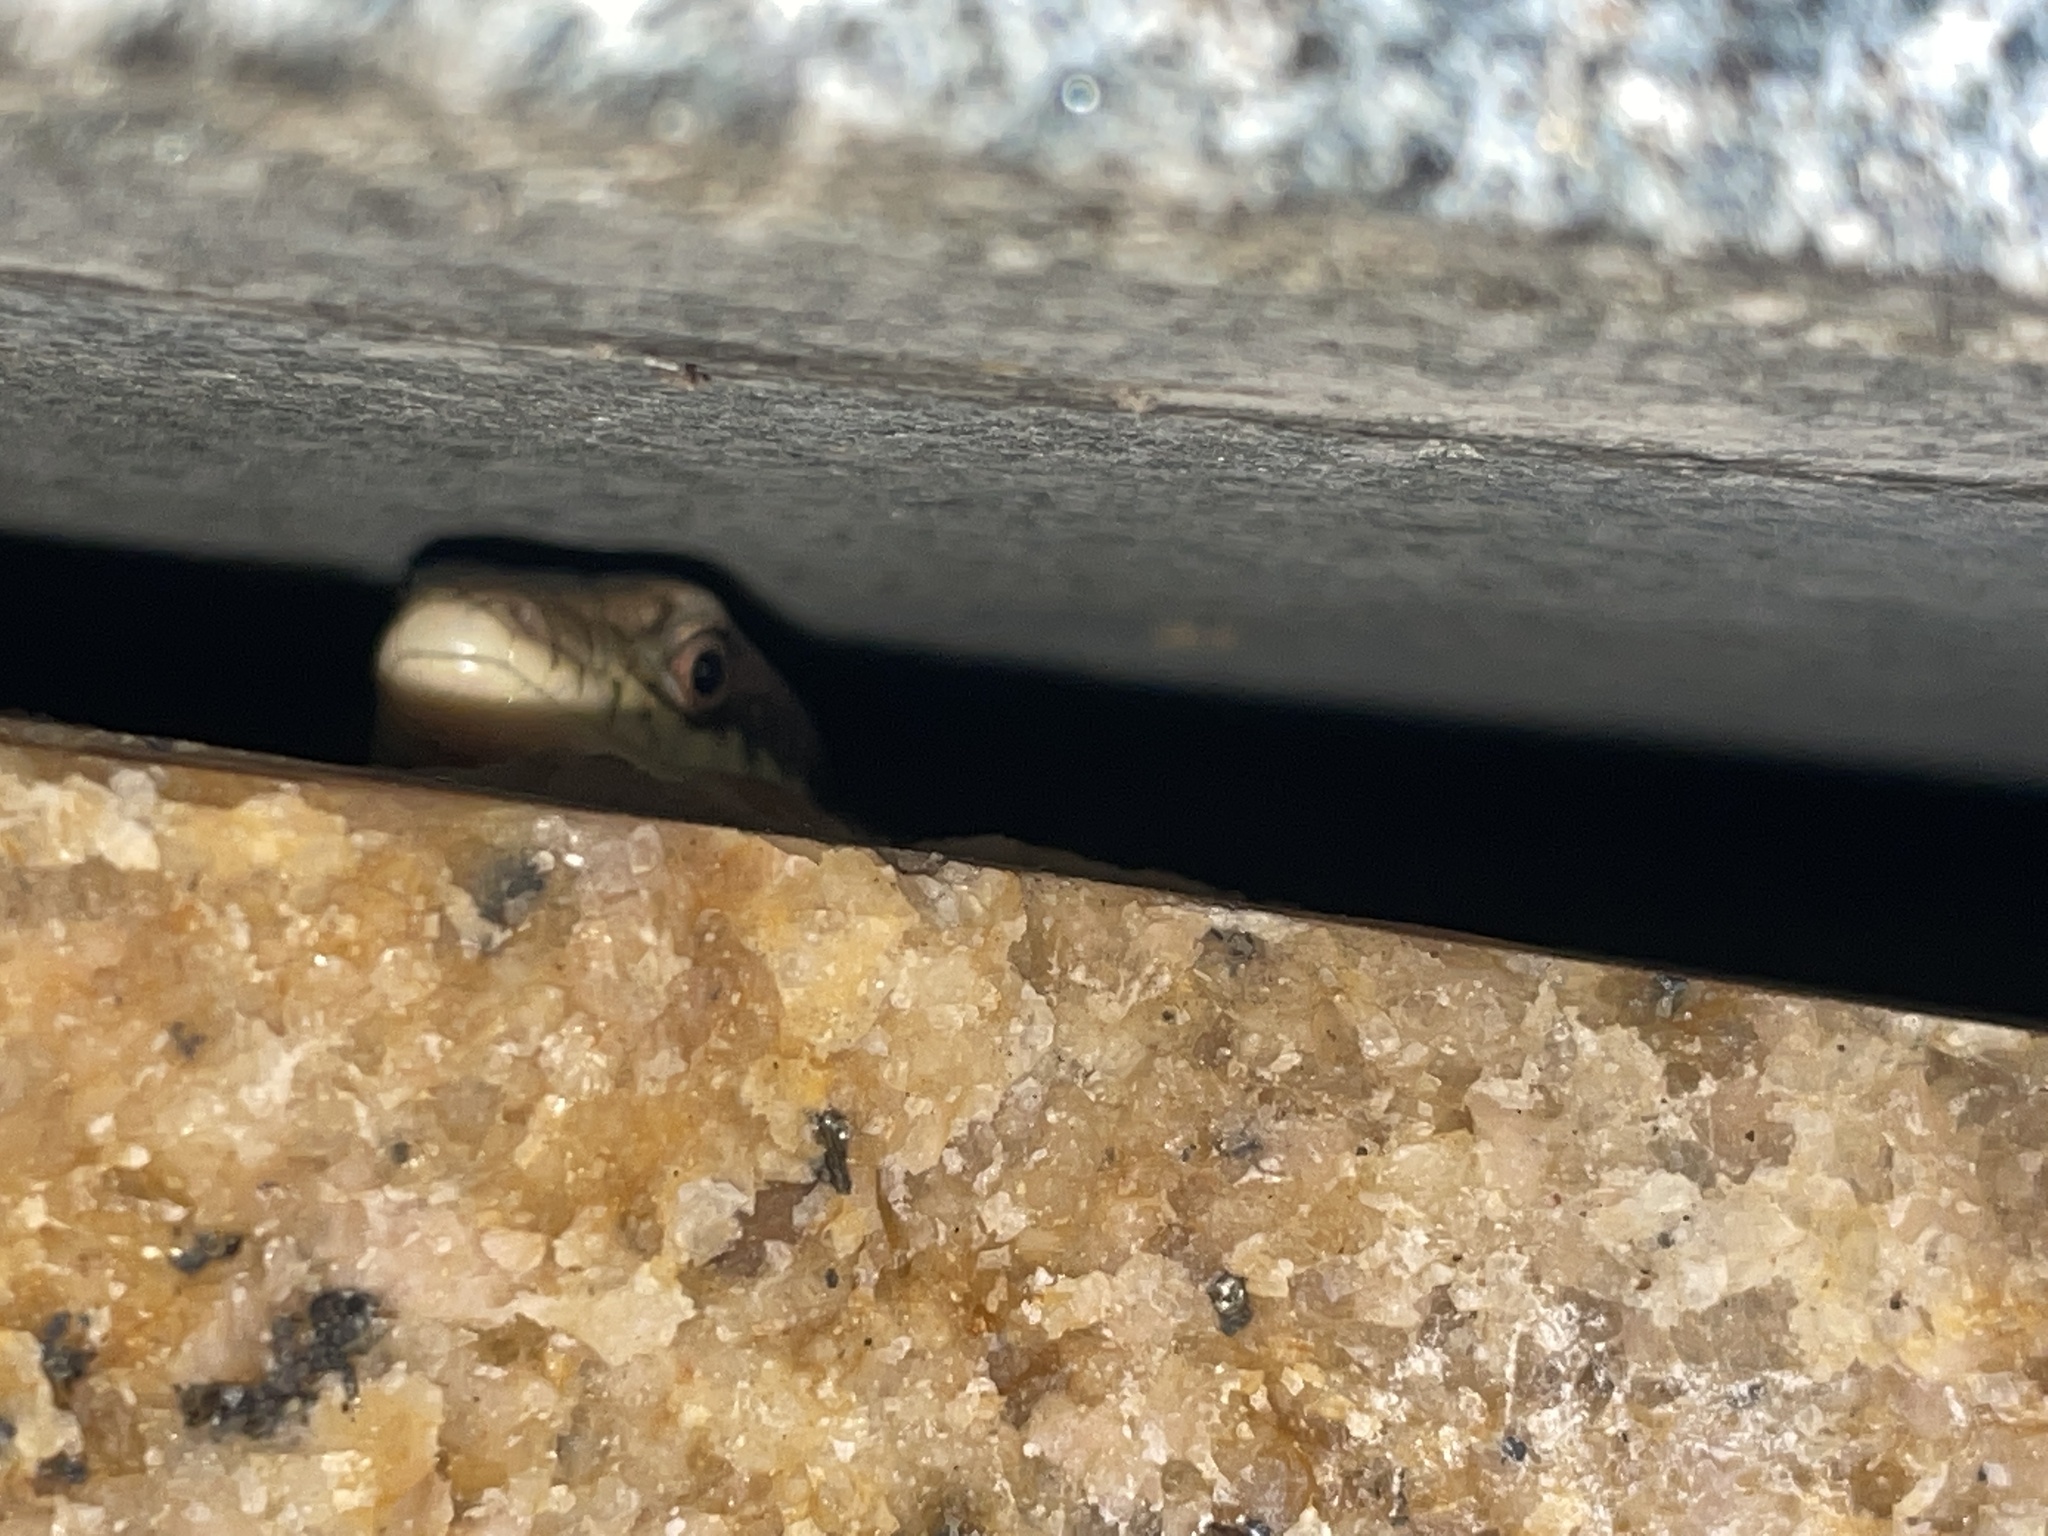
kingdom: Animalia
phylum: Chordata
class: Squamata
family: Scincidae
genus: Eutropis
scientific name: Eutropis longicaudata
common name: Long-tailed sun skink
